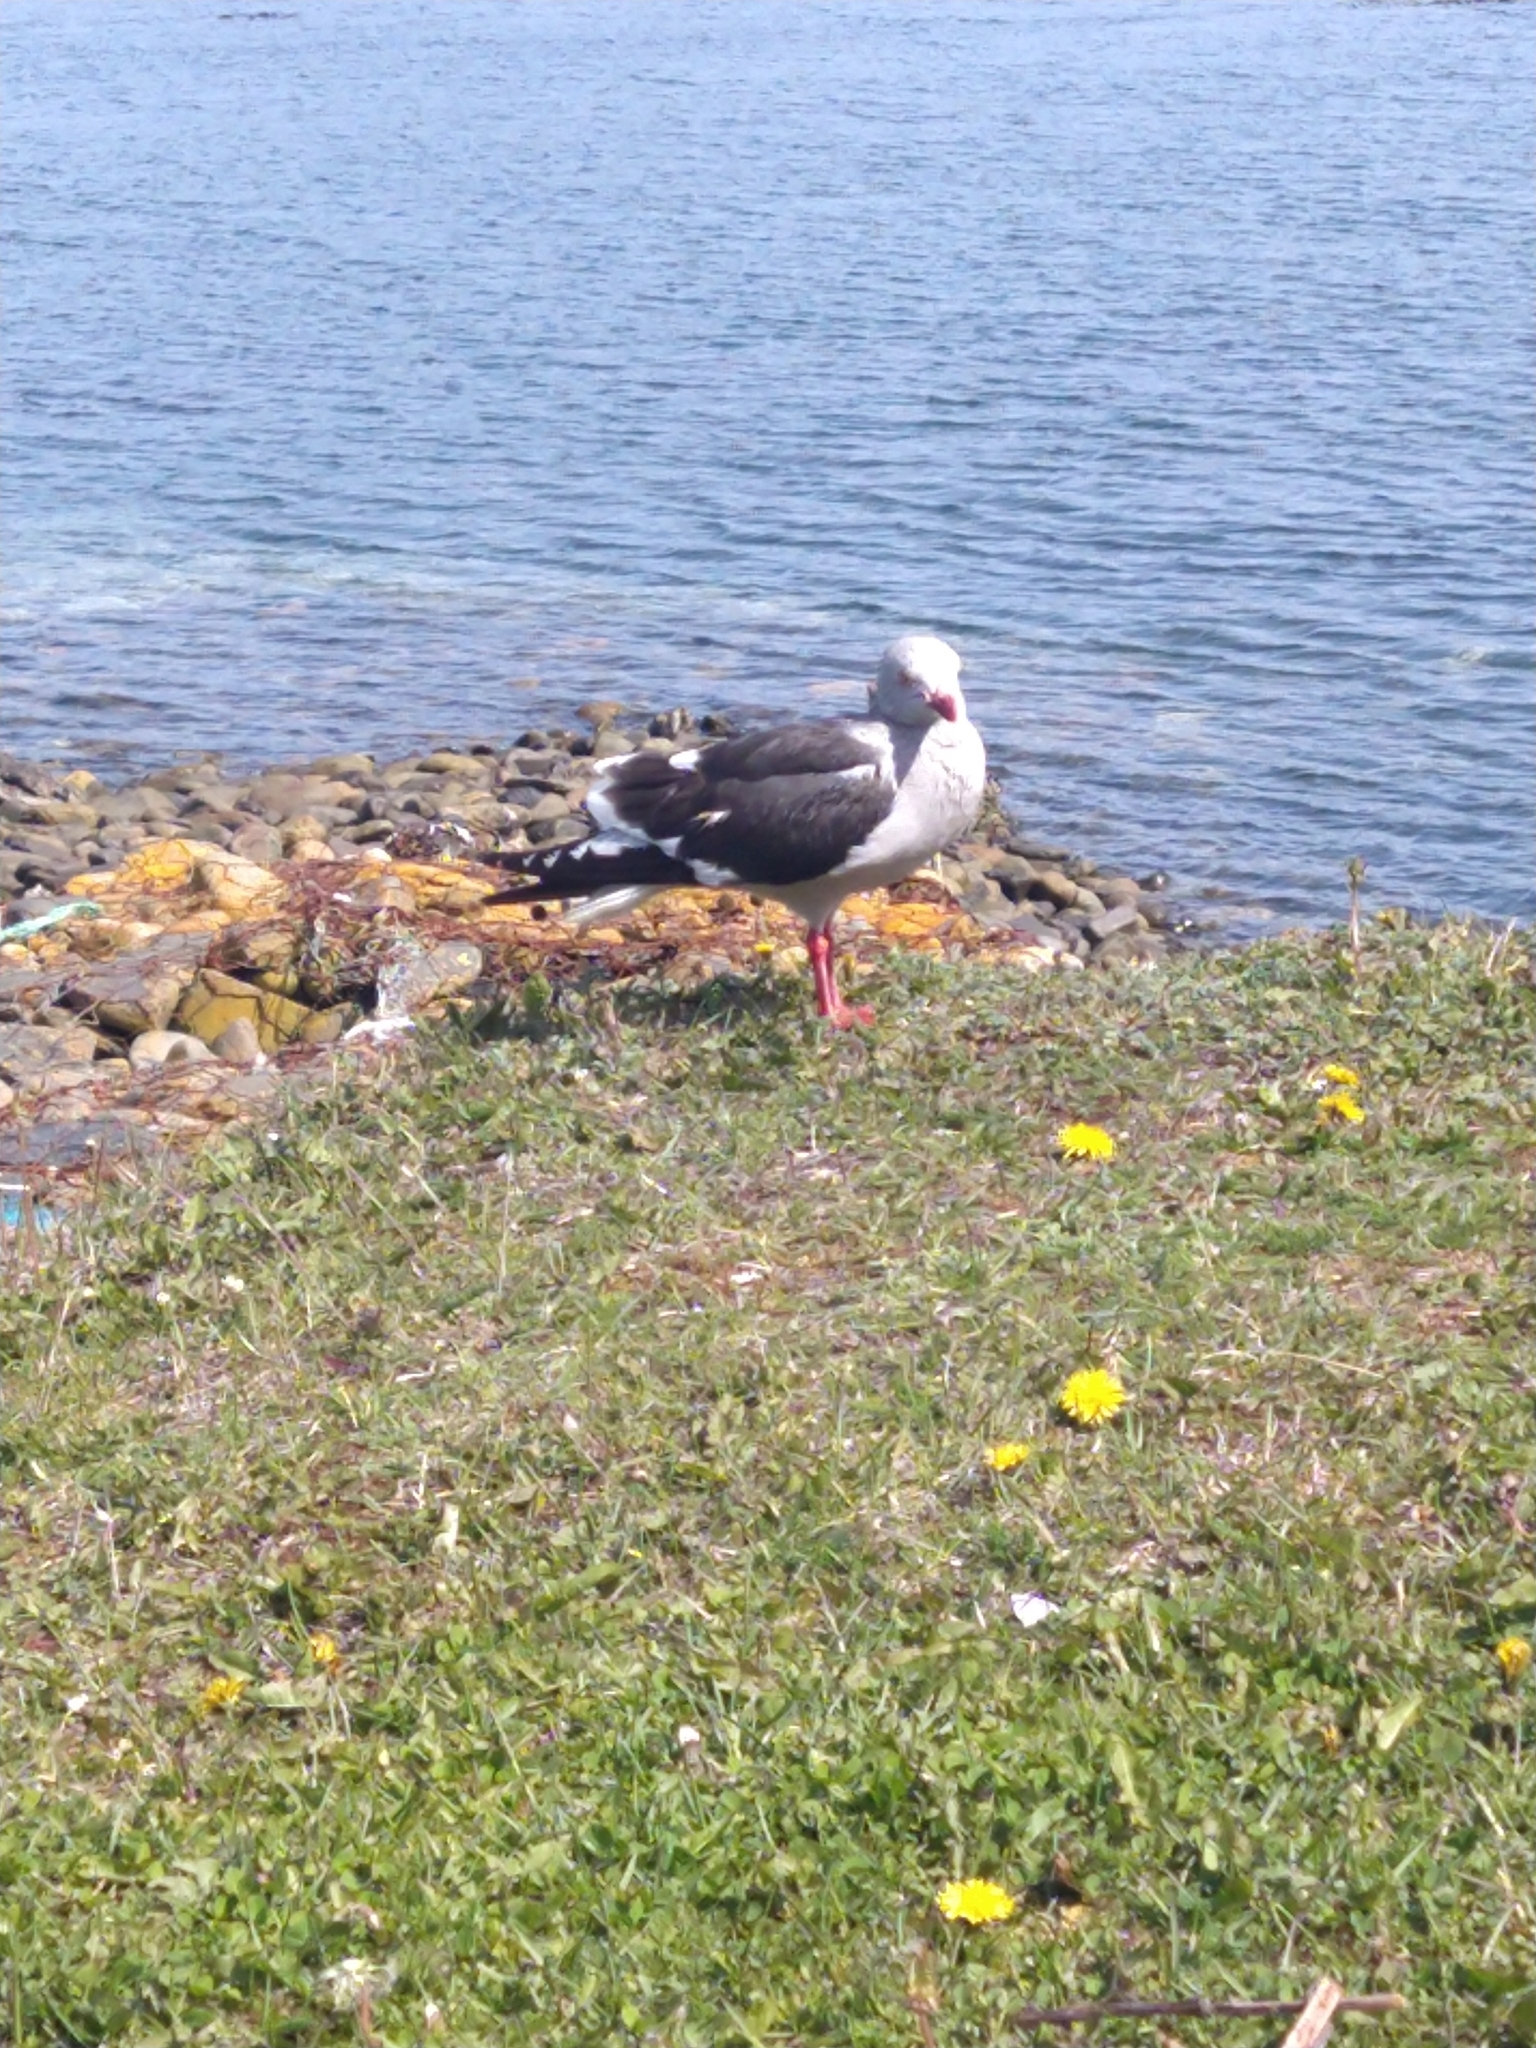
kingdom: Animalia
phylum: Chordata
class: Aves
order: Charadriiformes
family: Laridae
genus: Leucophaeus
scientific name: Leucophaeus scoresbii
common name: Dolphin gull
